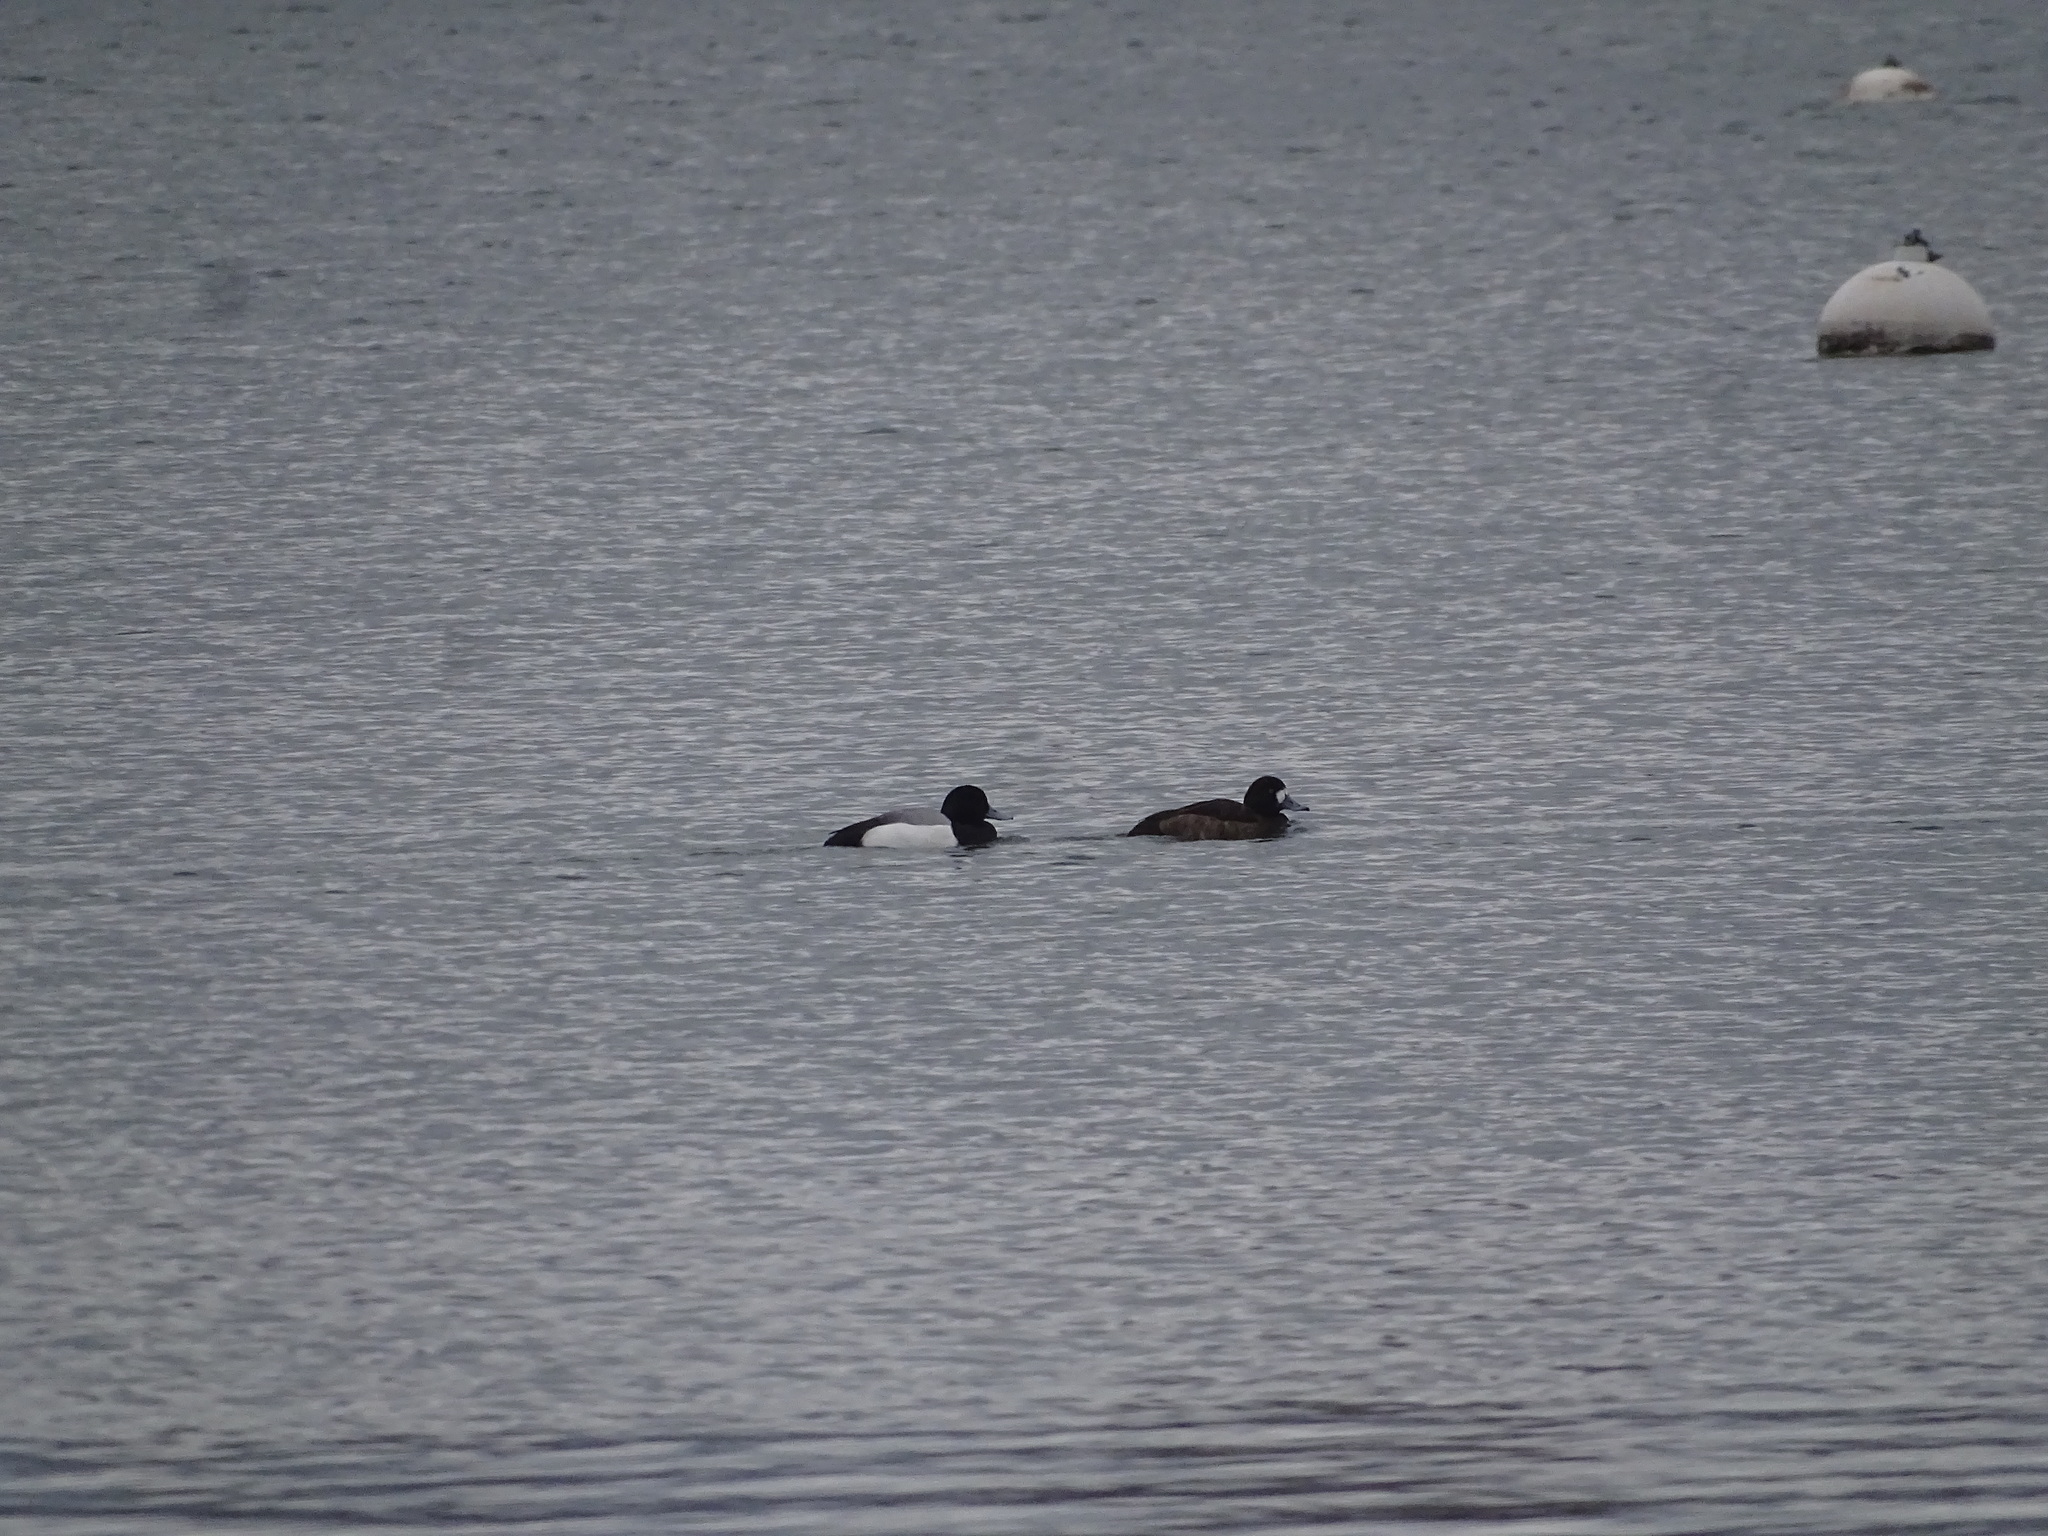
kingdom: Animalia
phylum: Chordata
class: Aves
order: Anseriformes
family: Anatidae
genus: Aythya
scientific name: Aythya marila
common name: Greater scaup
